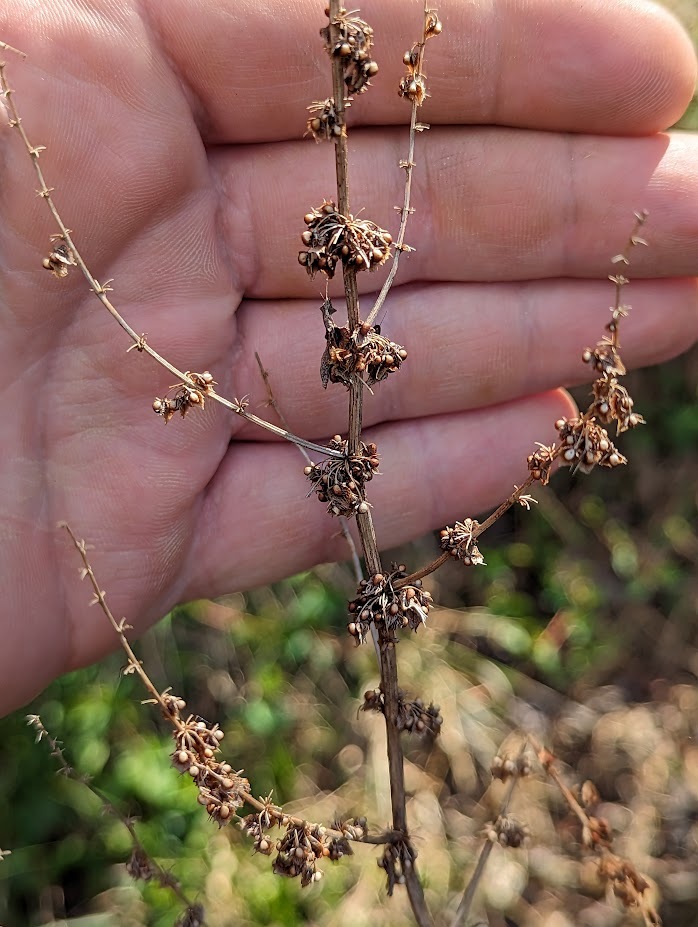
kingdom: Plantae
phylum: Tracheophyta
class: Magnoliopsida
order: Caryophyllales
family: Polygonaceae
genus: Rumex
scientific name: Rumex obtusifolius
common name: Bitter dock
